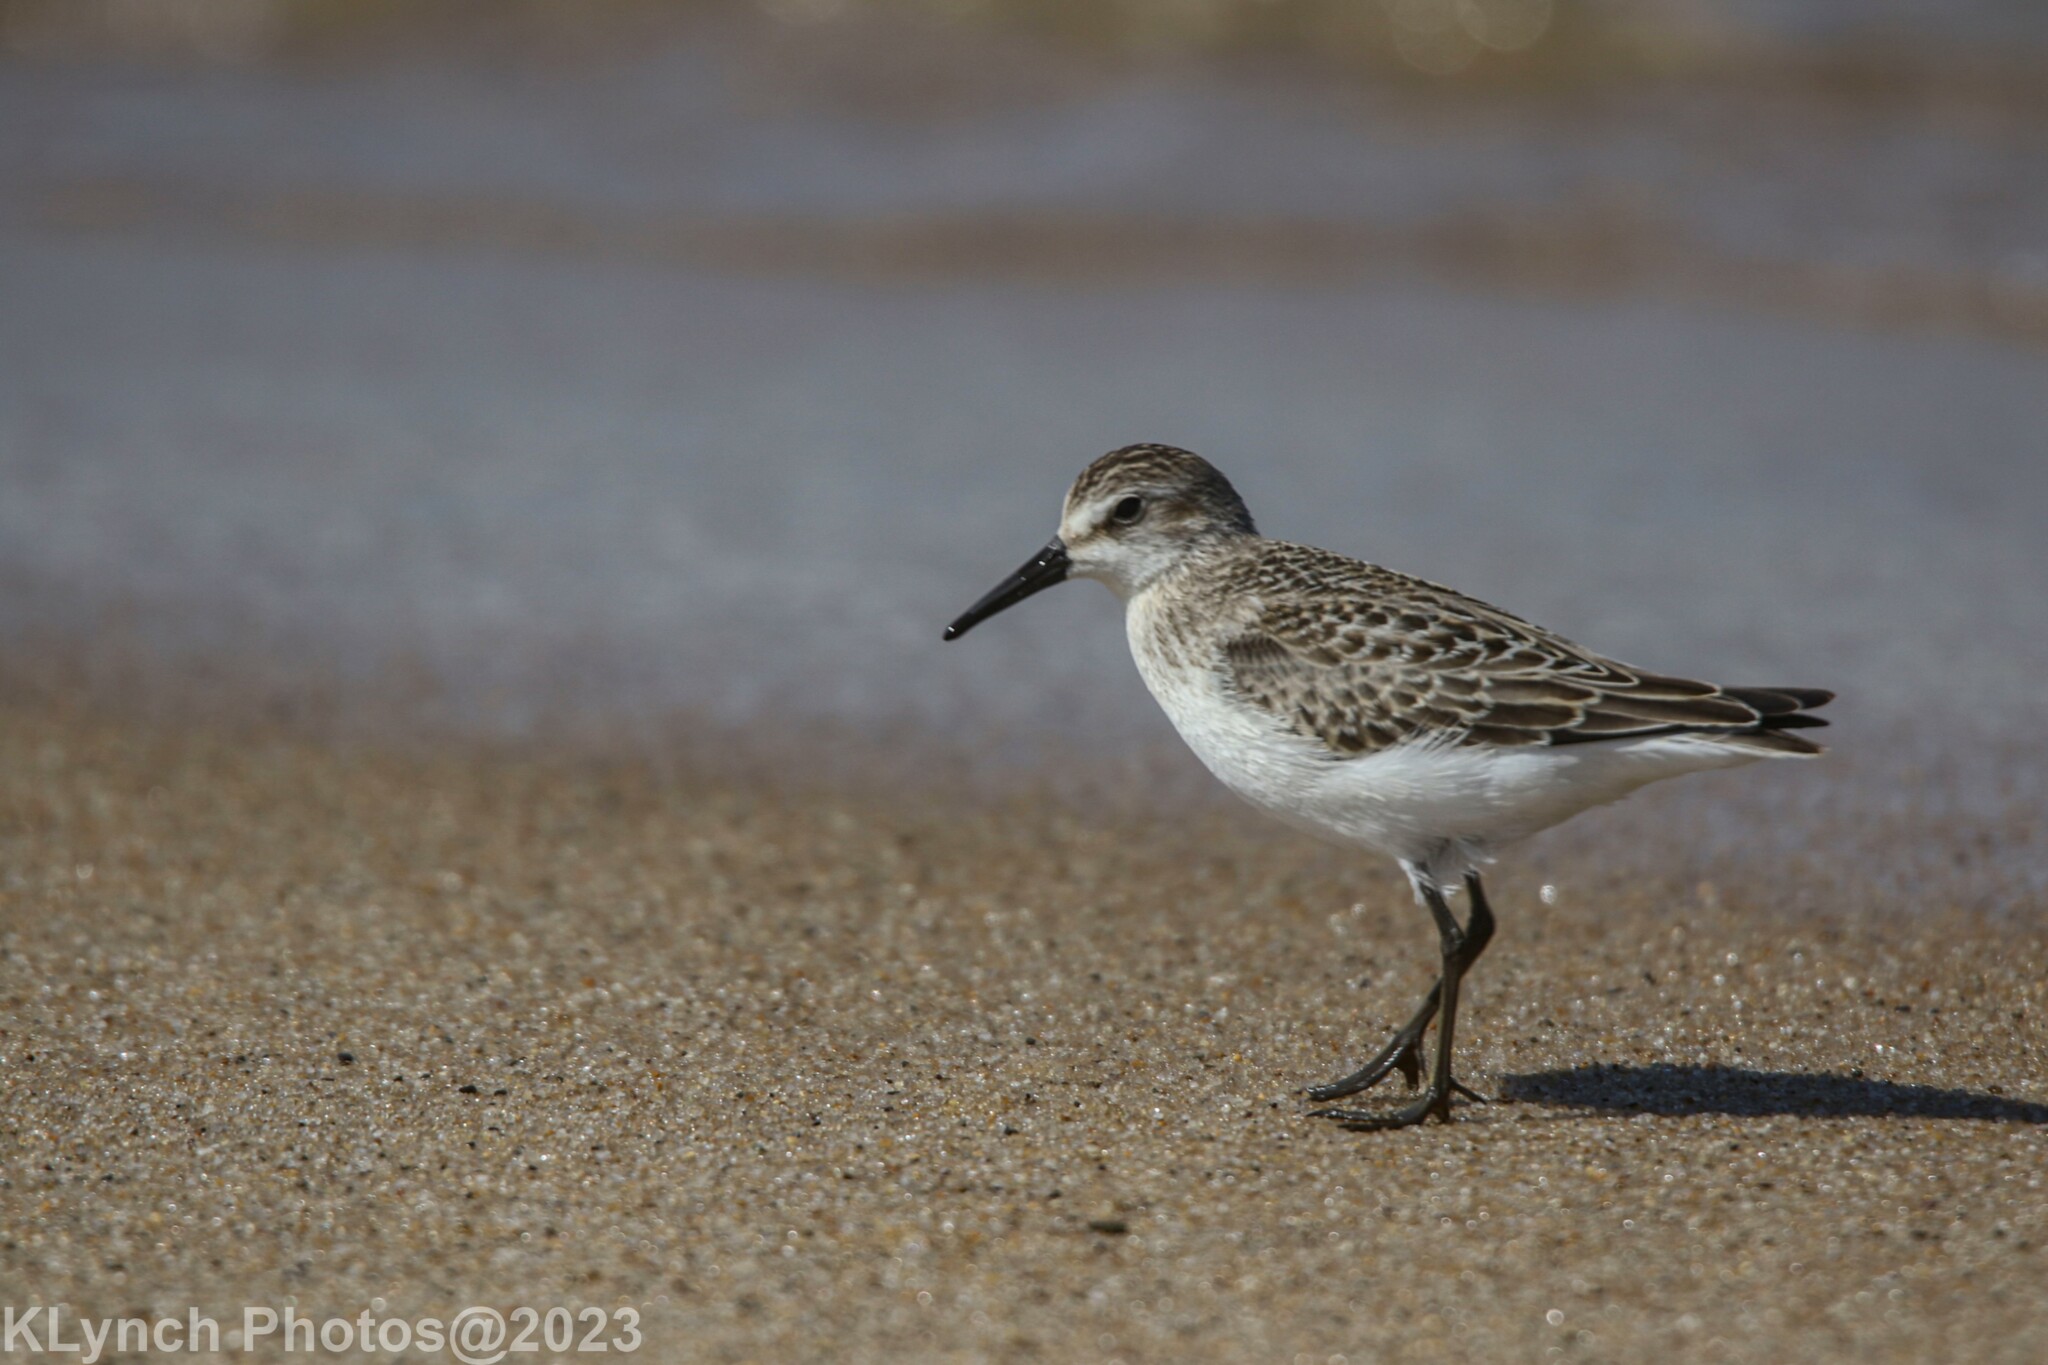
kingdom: Animalia
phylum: Chordata
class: Aves
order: Charadriiformes
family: Scolopacidae
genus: Calidris
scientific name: Calidris pusilla
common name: Semipalmated sandpiper
